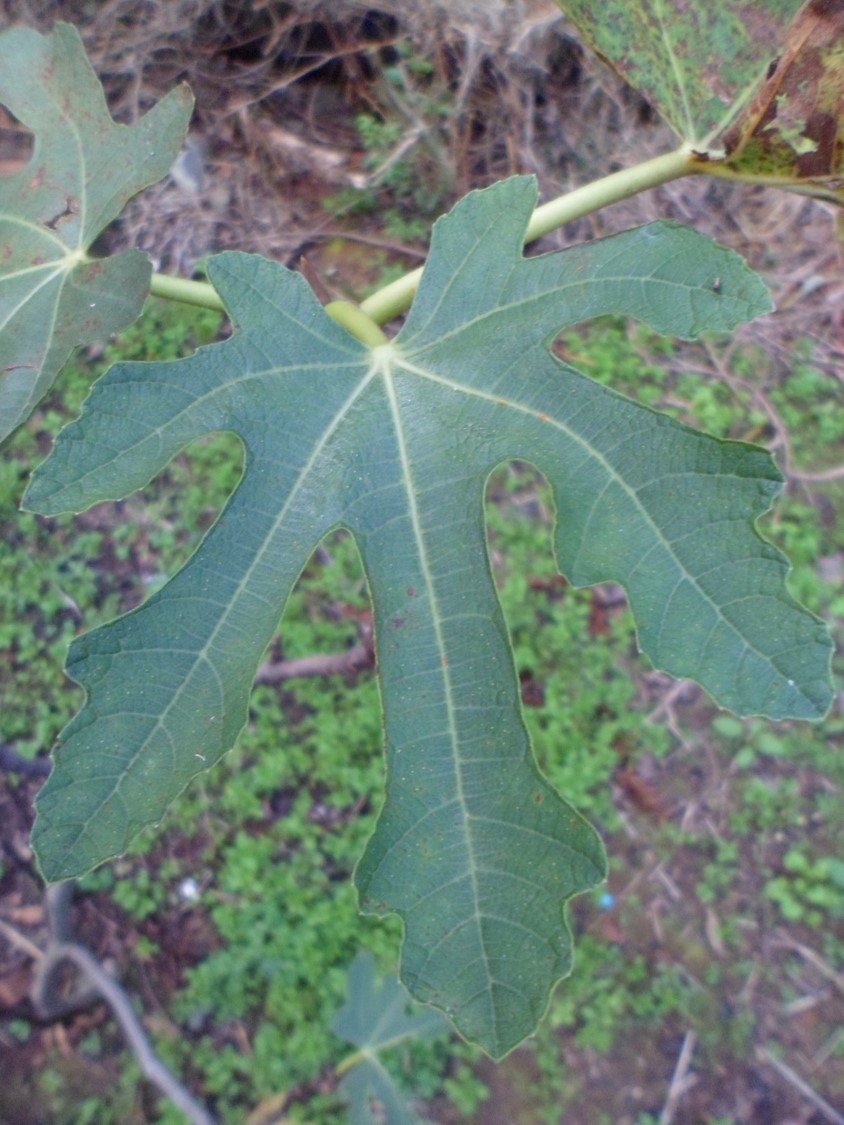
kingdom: Plantae
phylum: Tracheophyta
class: Magnoliopsida
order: Rosales
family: Moraceae
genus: Ficus
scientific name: Ficus carica
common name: Fig
